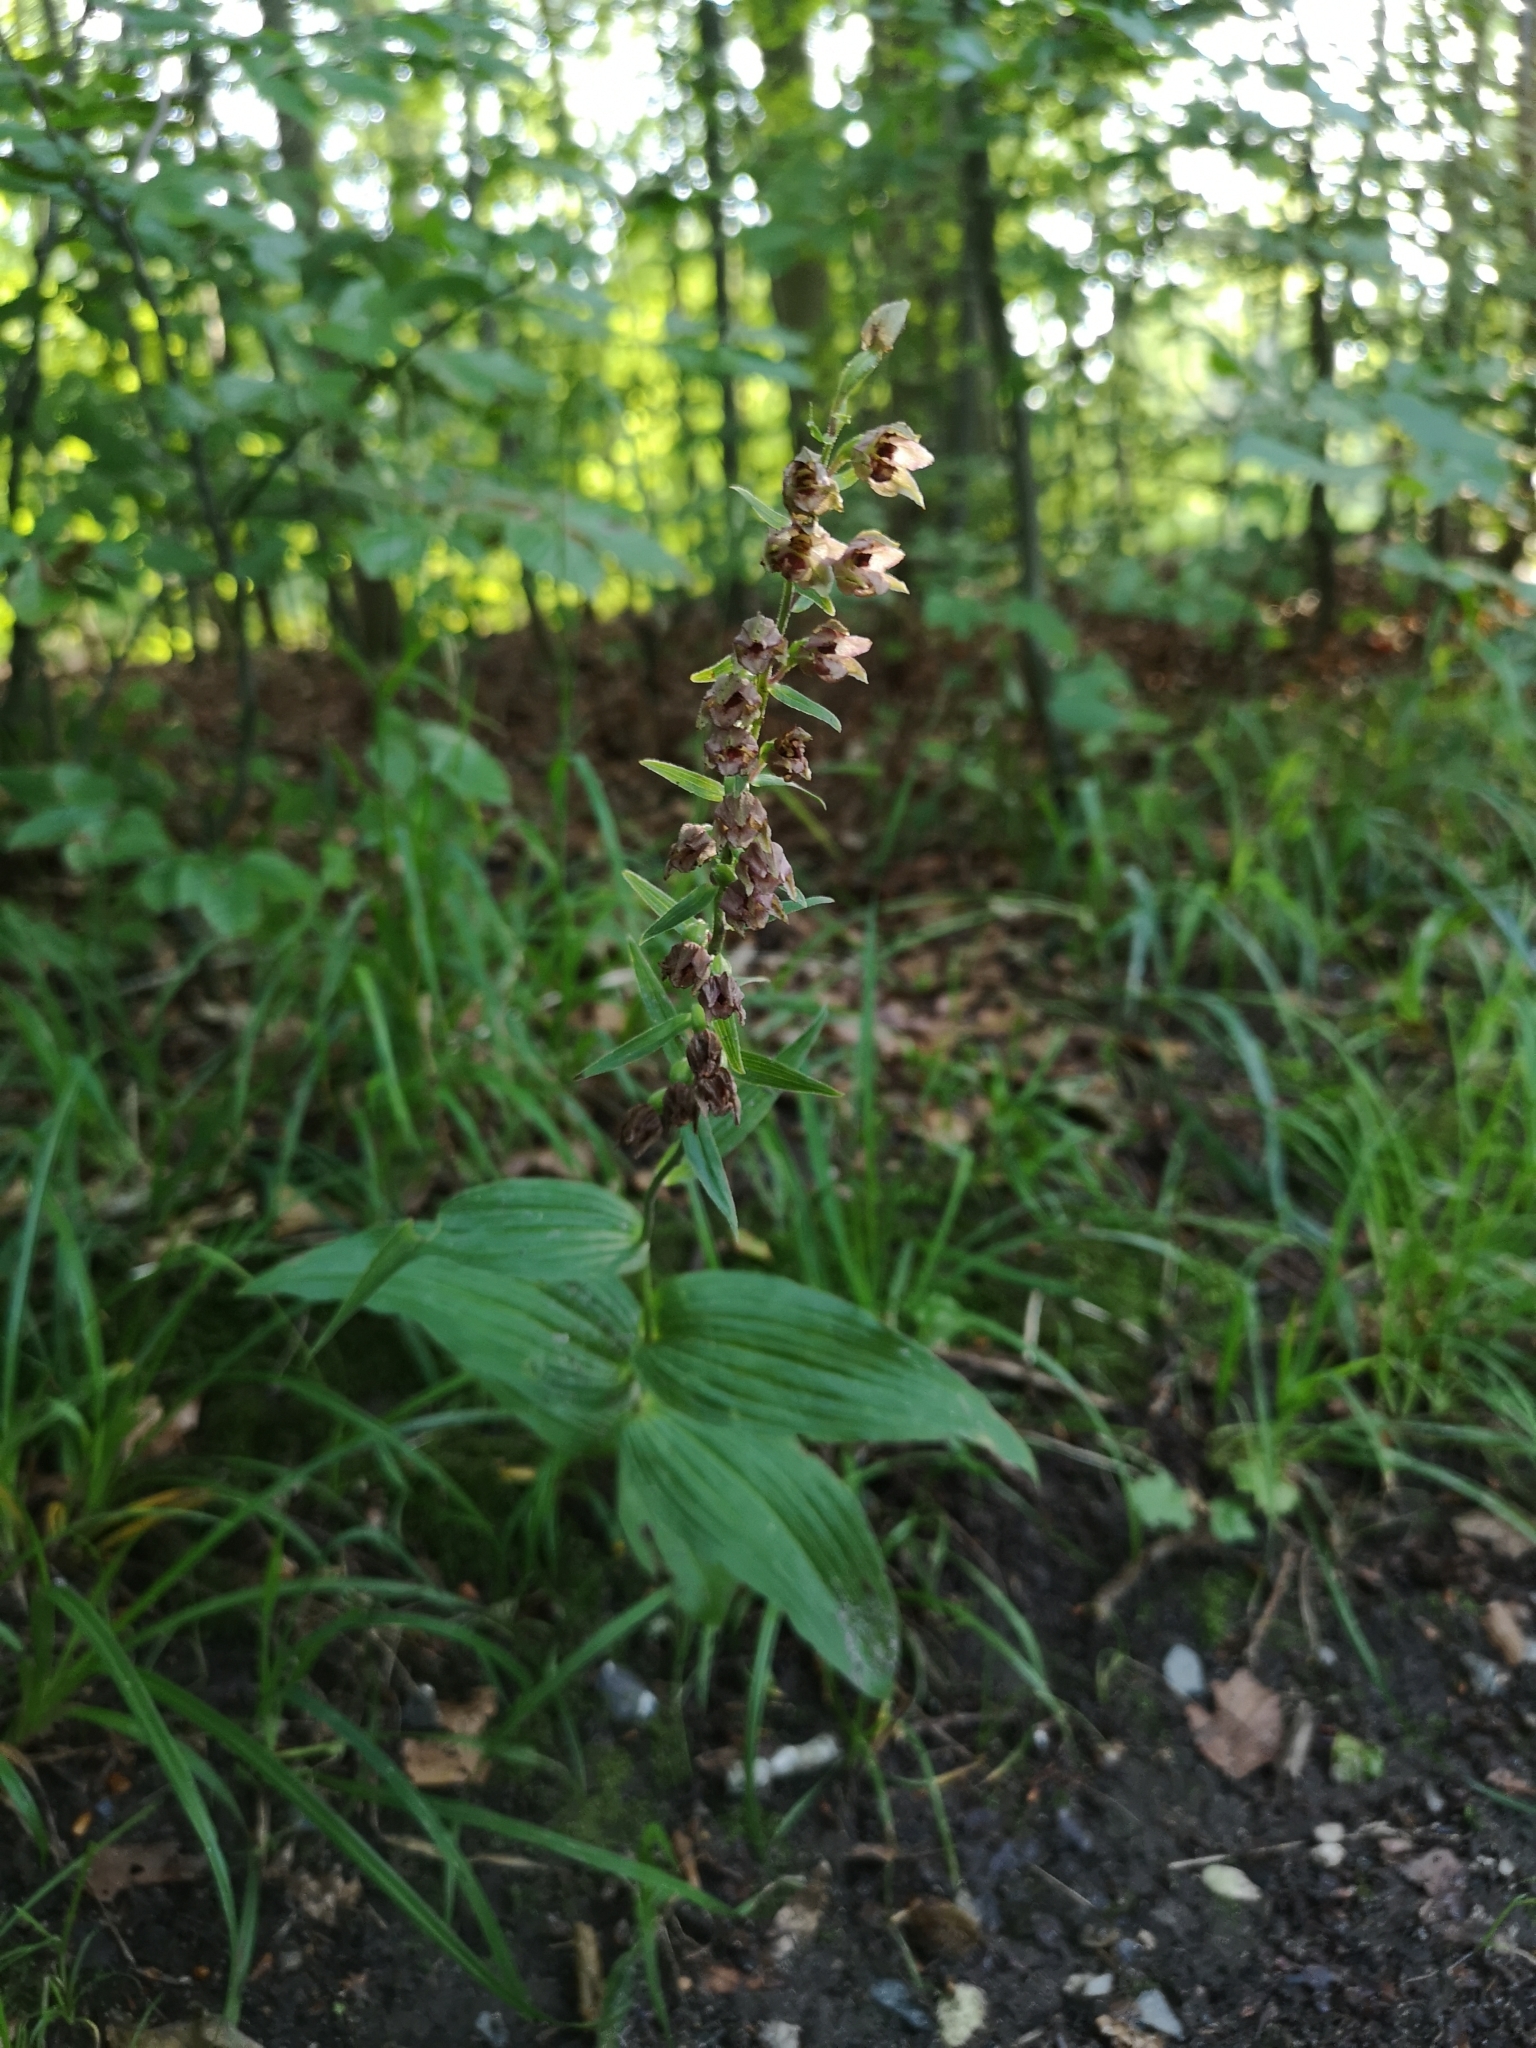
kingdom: Plantae
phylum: Tracheophyta
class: Liliopsida
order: Asparagales
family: Orchidaceae
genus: Epipactis
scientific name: Epipactis helleborine
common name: Broad-leaved helleborine
